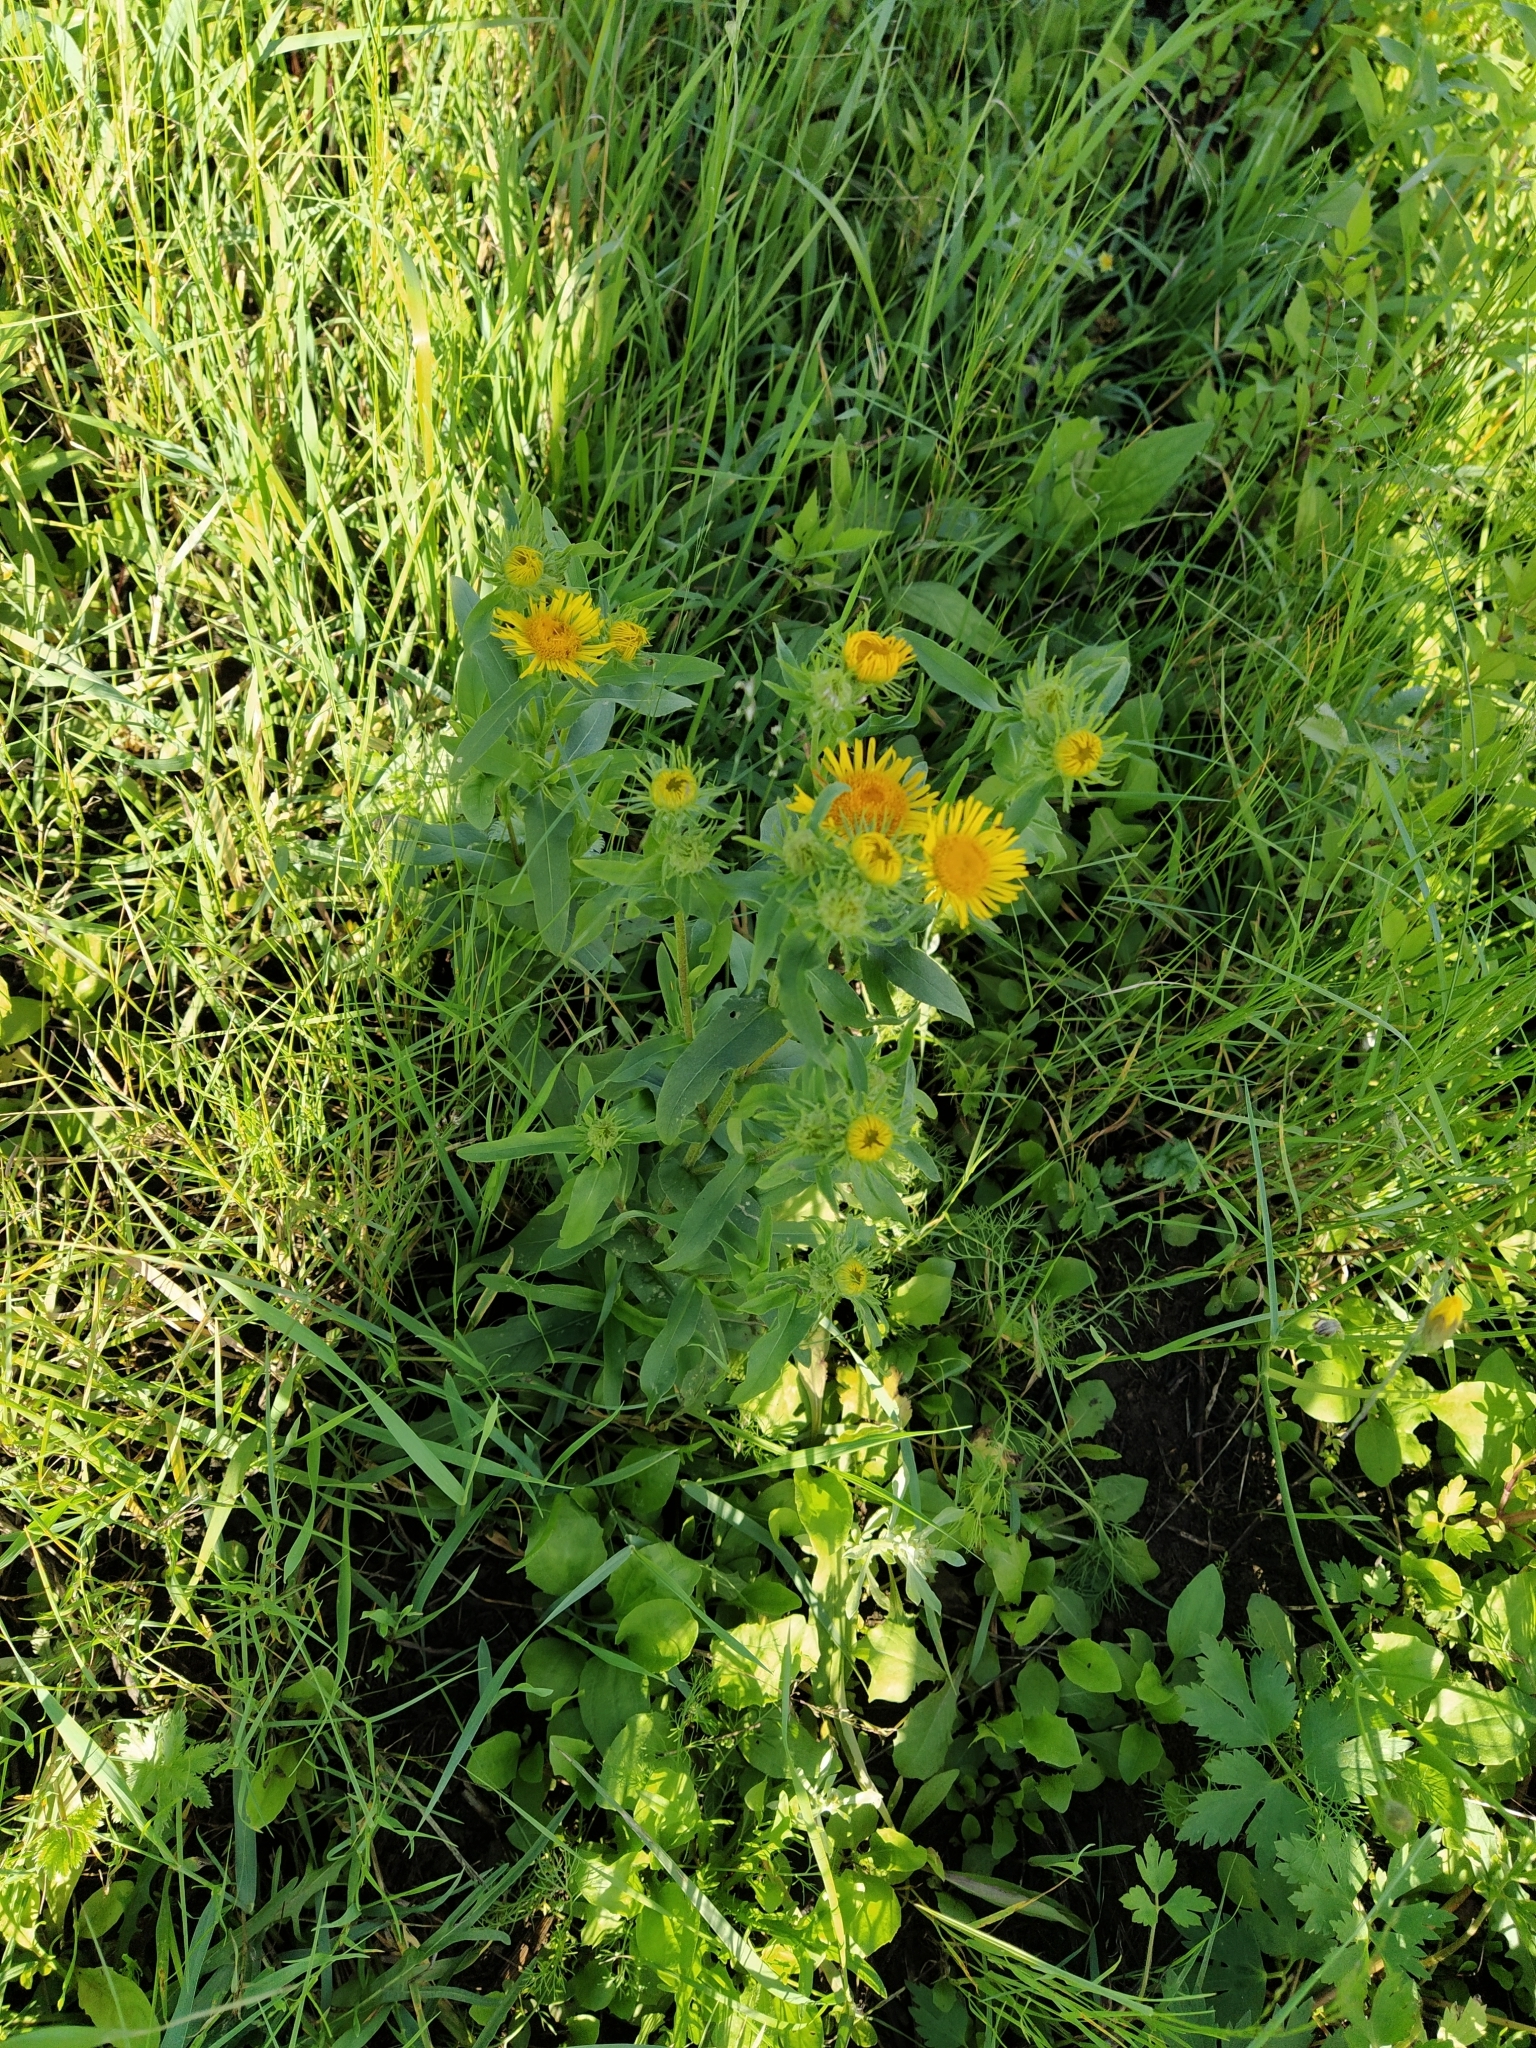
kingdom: Plantae
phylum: Tracheophyta
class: Magnoliopsida
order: Asterales
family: Asteraceae
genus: Pentanema
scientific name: Pentanema britannicum
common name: British elecampane
